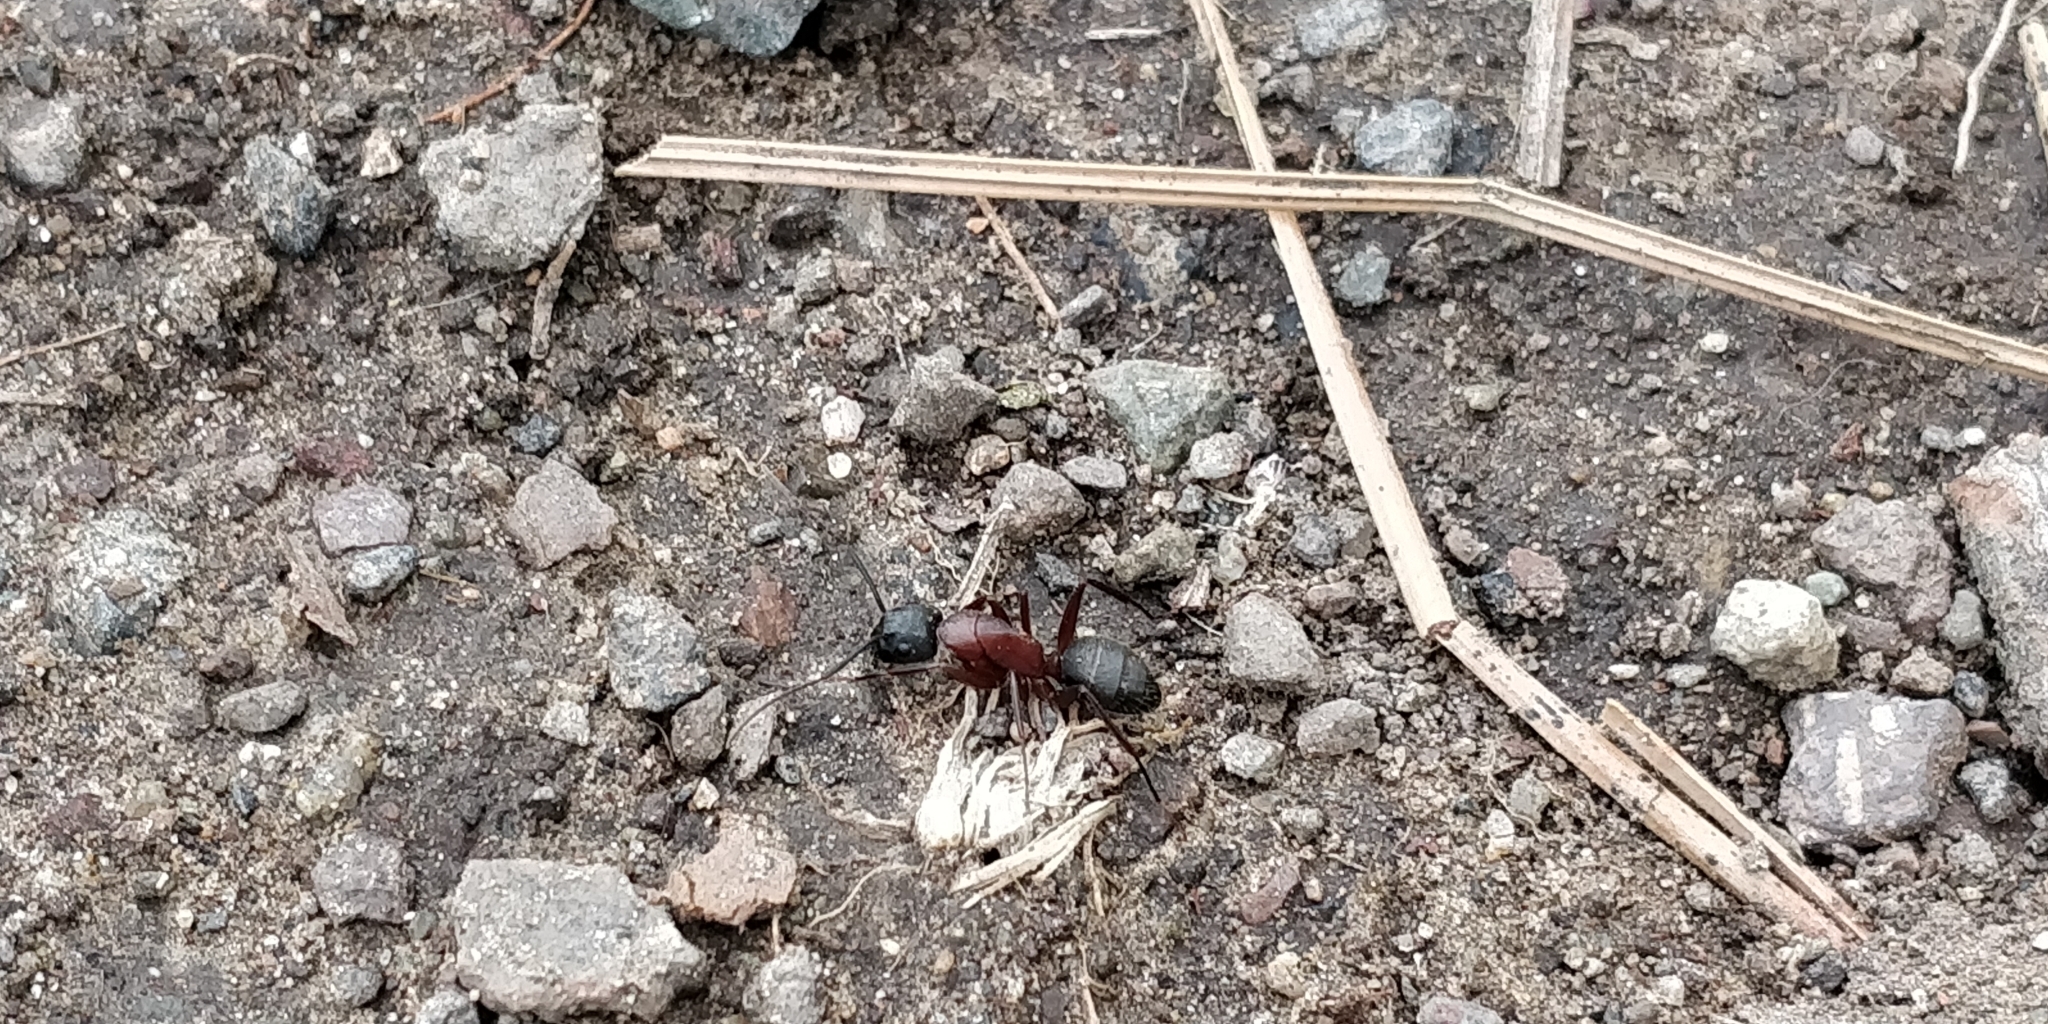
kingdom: Animalia
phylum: Arthropoda
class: Insecta
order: Hymenoptera
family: Formicidae
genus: Camponotus
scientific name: Camponotus vicinus
